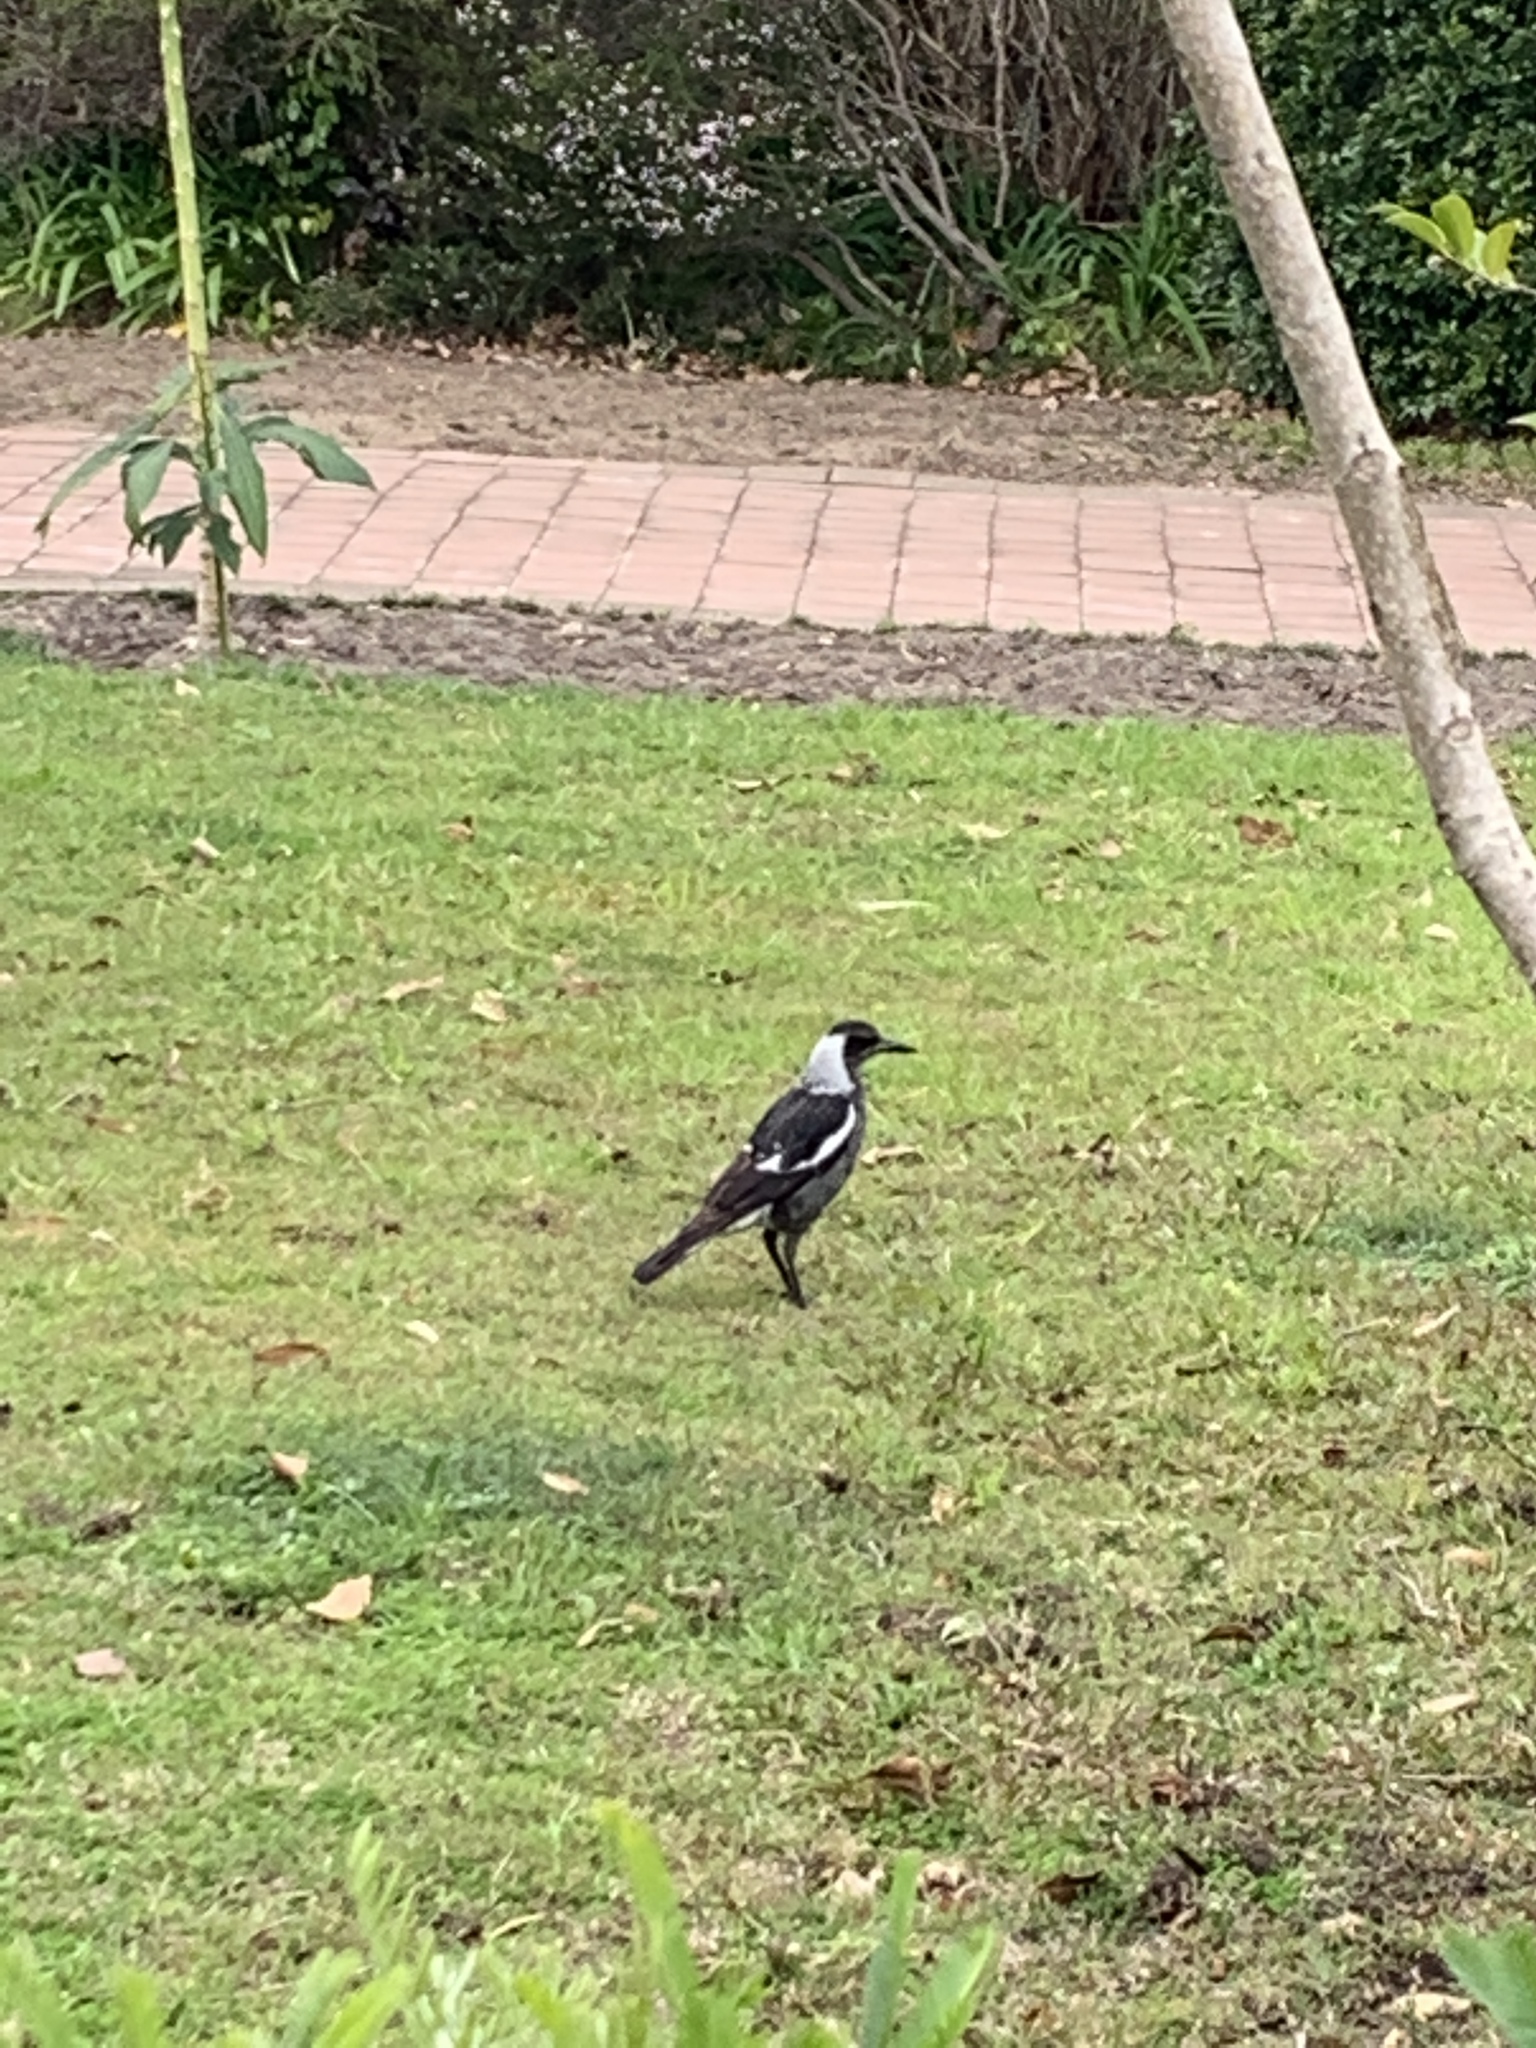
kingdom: Animalia
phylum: Chordata
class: Aves
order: Passeriformes
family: Cracticidae
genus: Gymnorhina
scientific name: Gymnorhina tibicen
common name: Australian magpie
